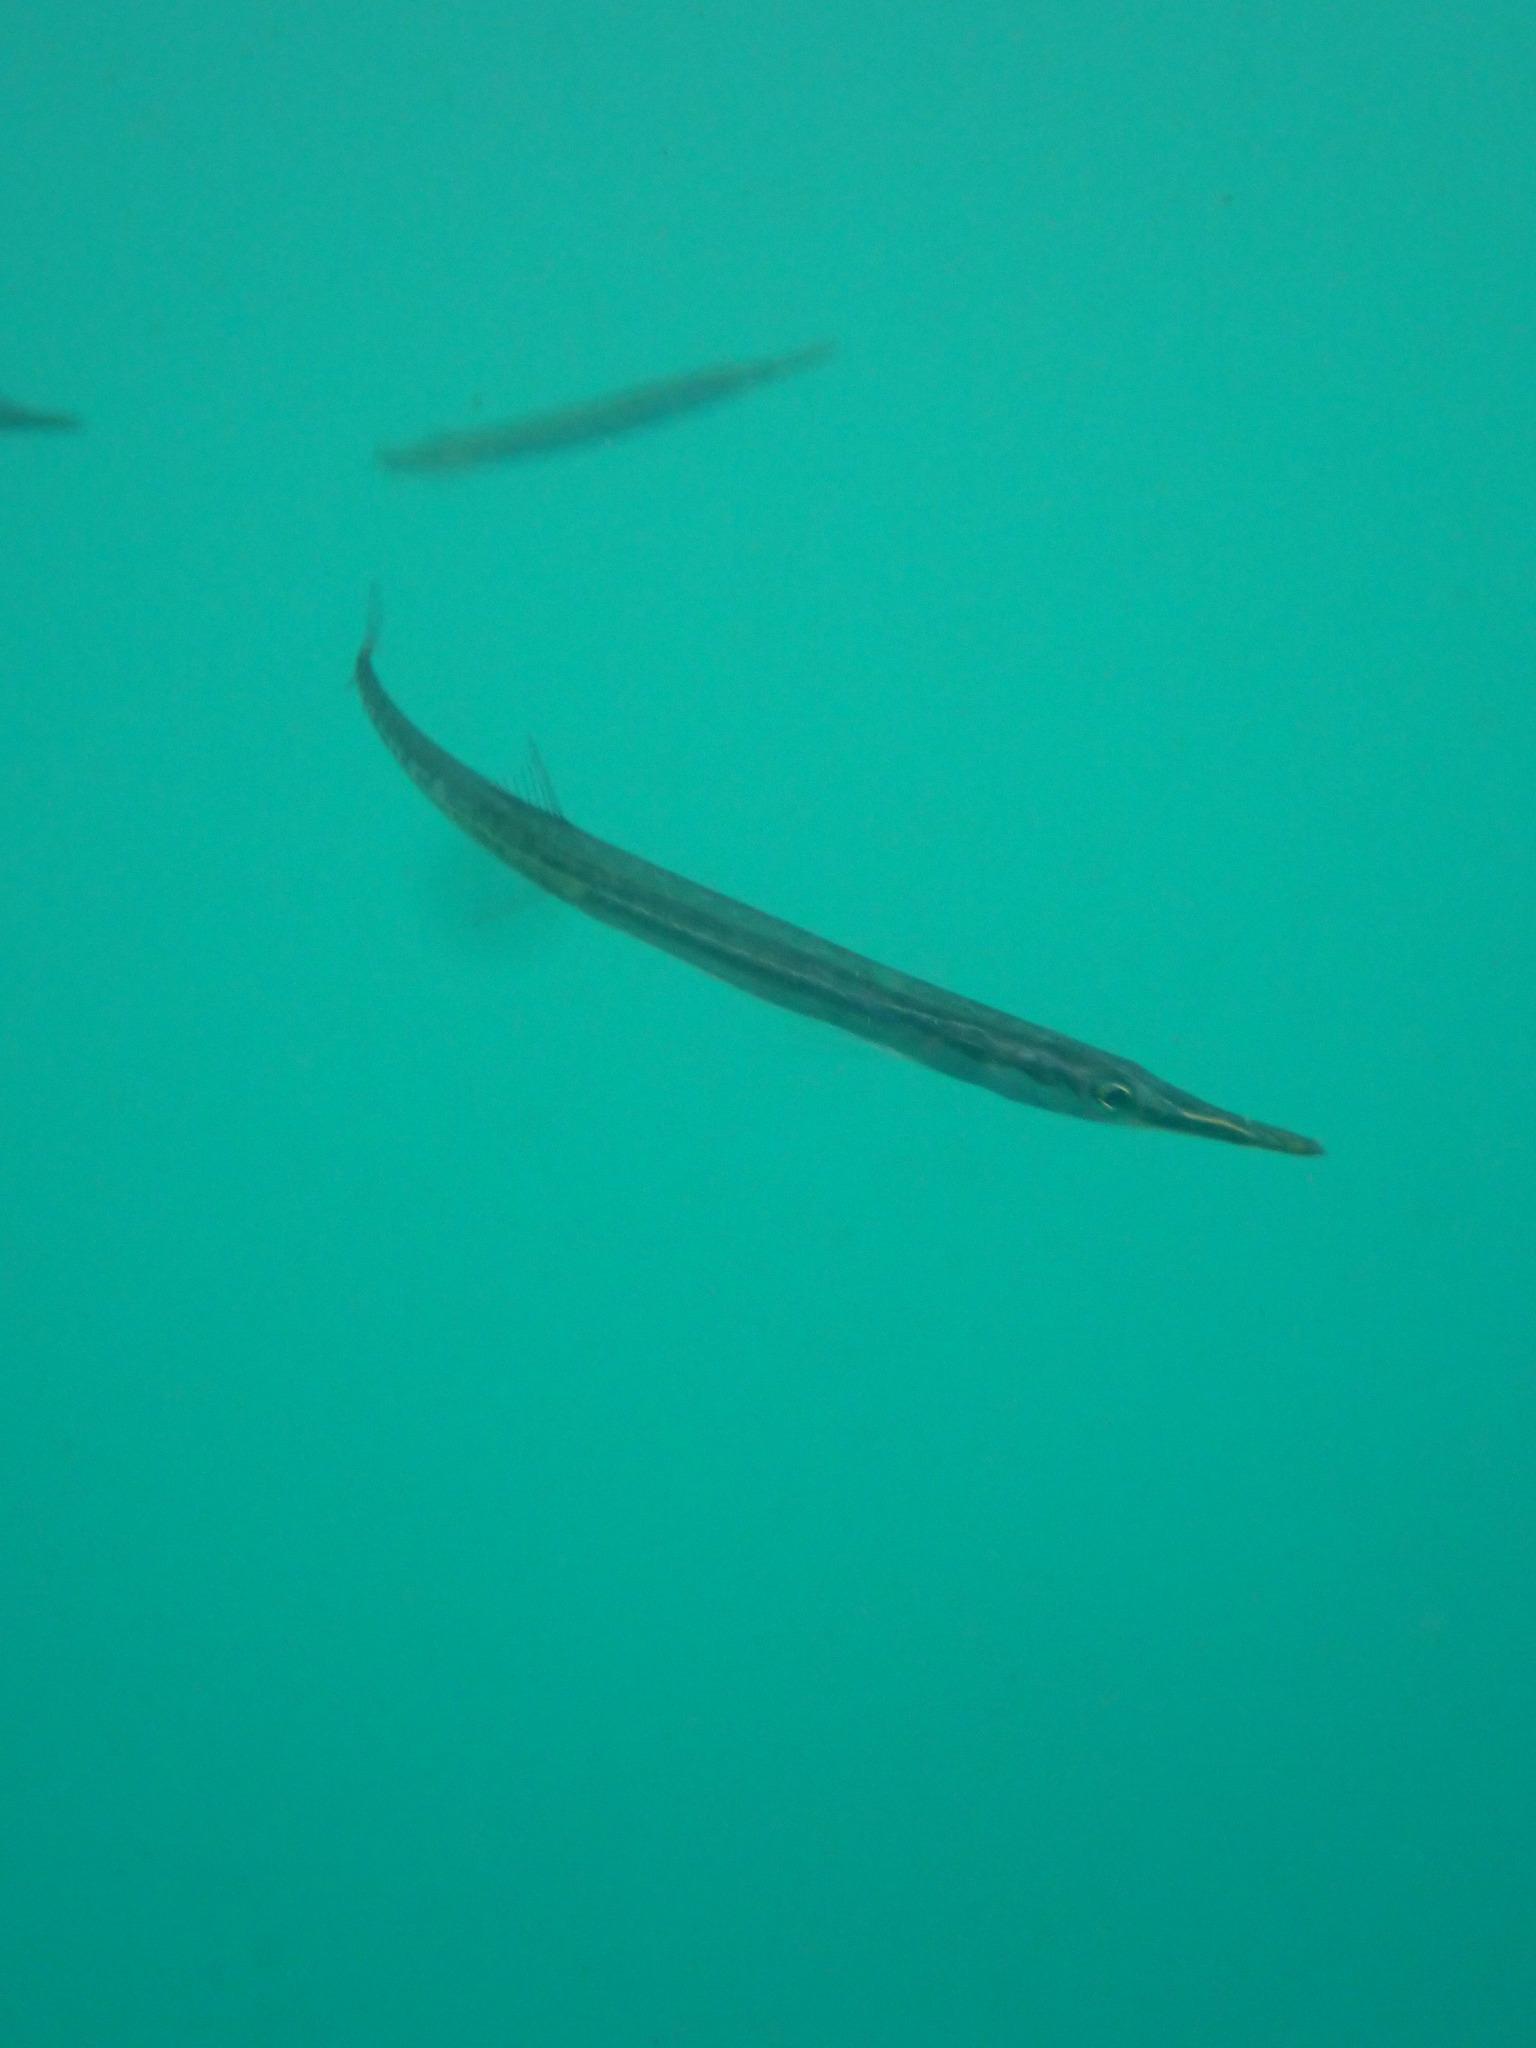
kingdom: Animalia
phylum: Chordata
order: Gasterosteiformes
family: Aulorhynchidae
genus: Aulorhynchus
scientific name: Aulorhynchus flavidus
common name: Tube-snout
